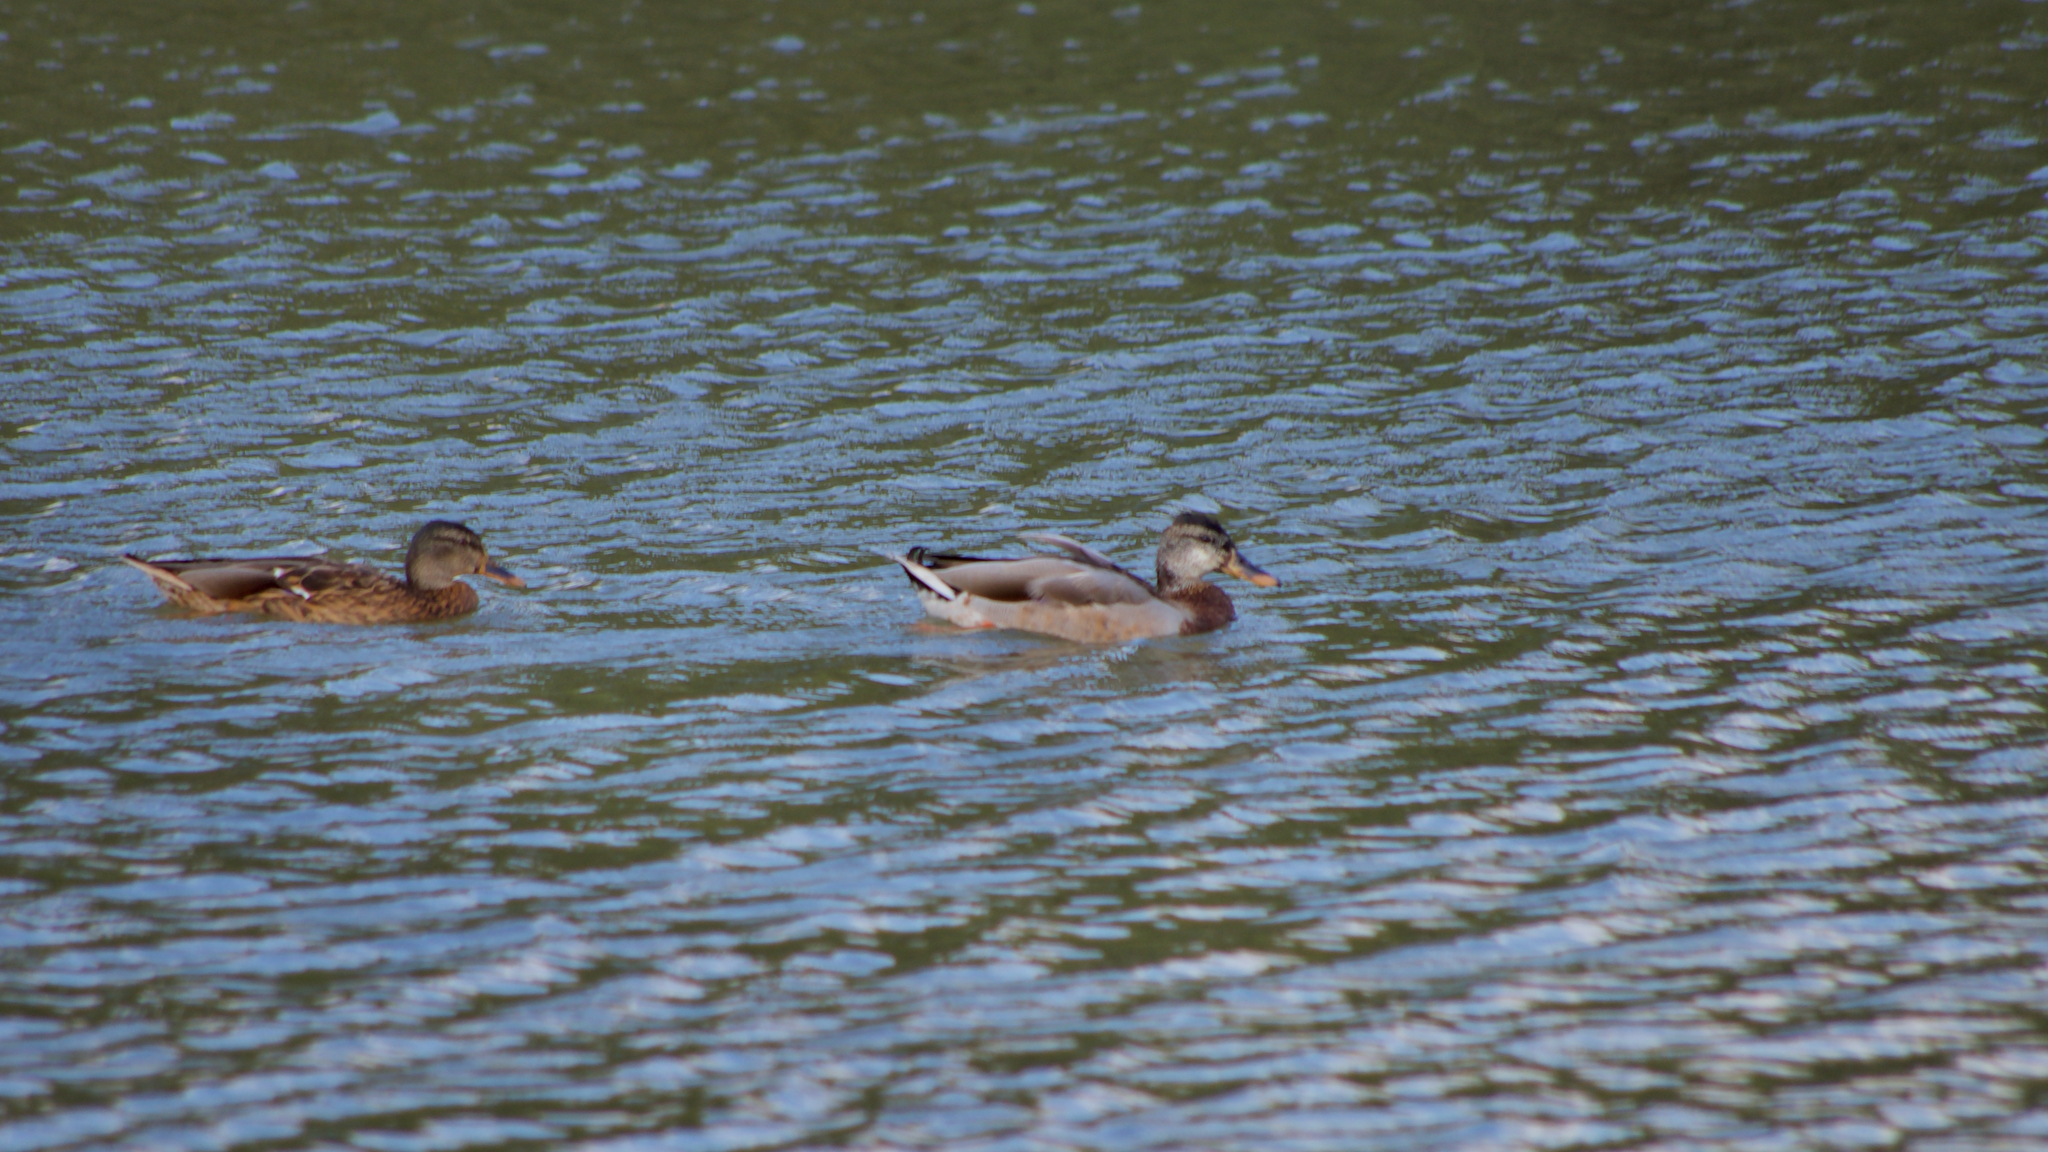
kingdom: Animalia
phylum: Chordata
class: Aves
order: Anseriformes
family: Anatidae
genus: Anas
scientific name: Anas platyrhynchos
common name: Mallard
